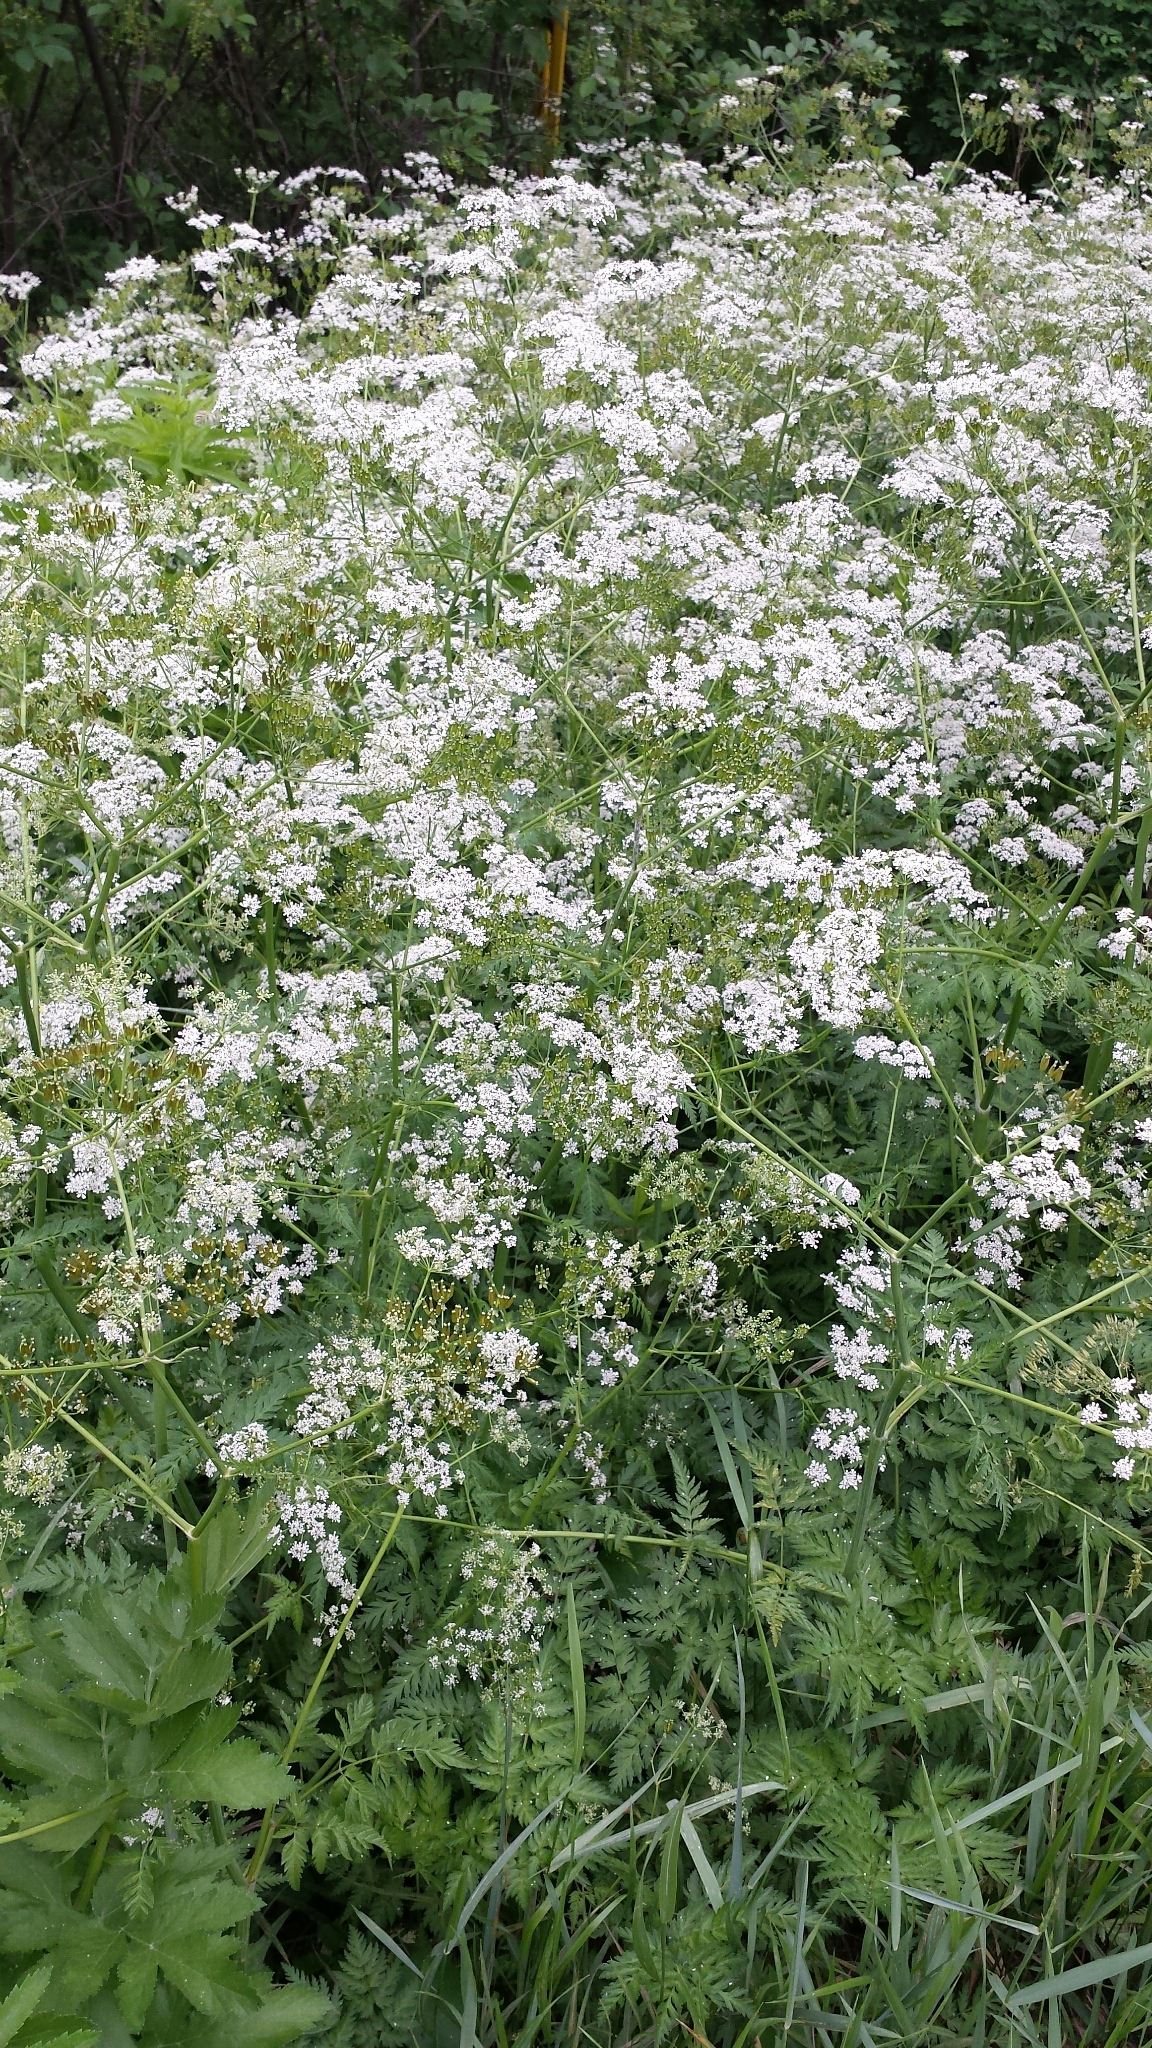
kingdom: Plantae
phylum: Tracheophyta
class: Magnoliopsida
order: Apiales
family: Apiaceae
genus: Anthriscus
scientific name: Anthriscus sylvestris
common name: Cow parsley
